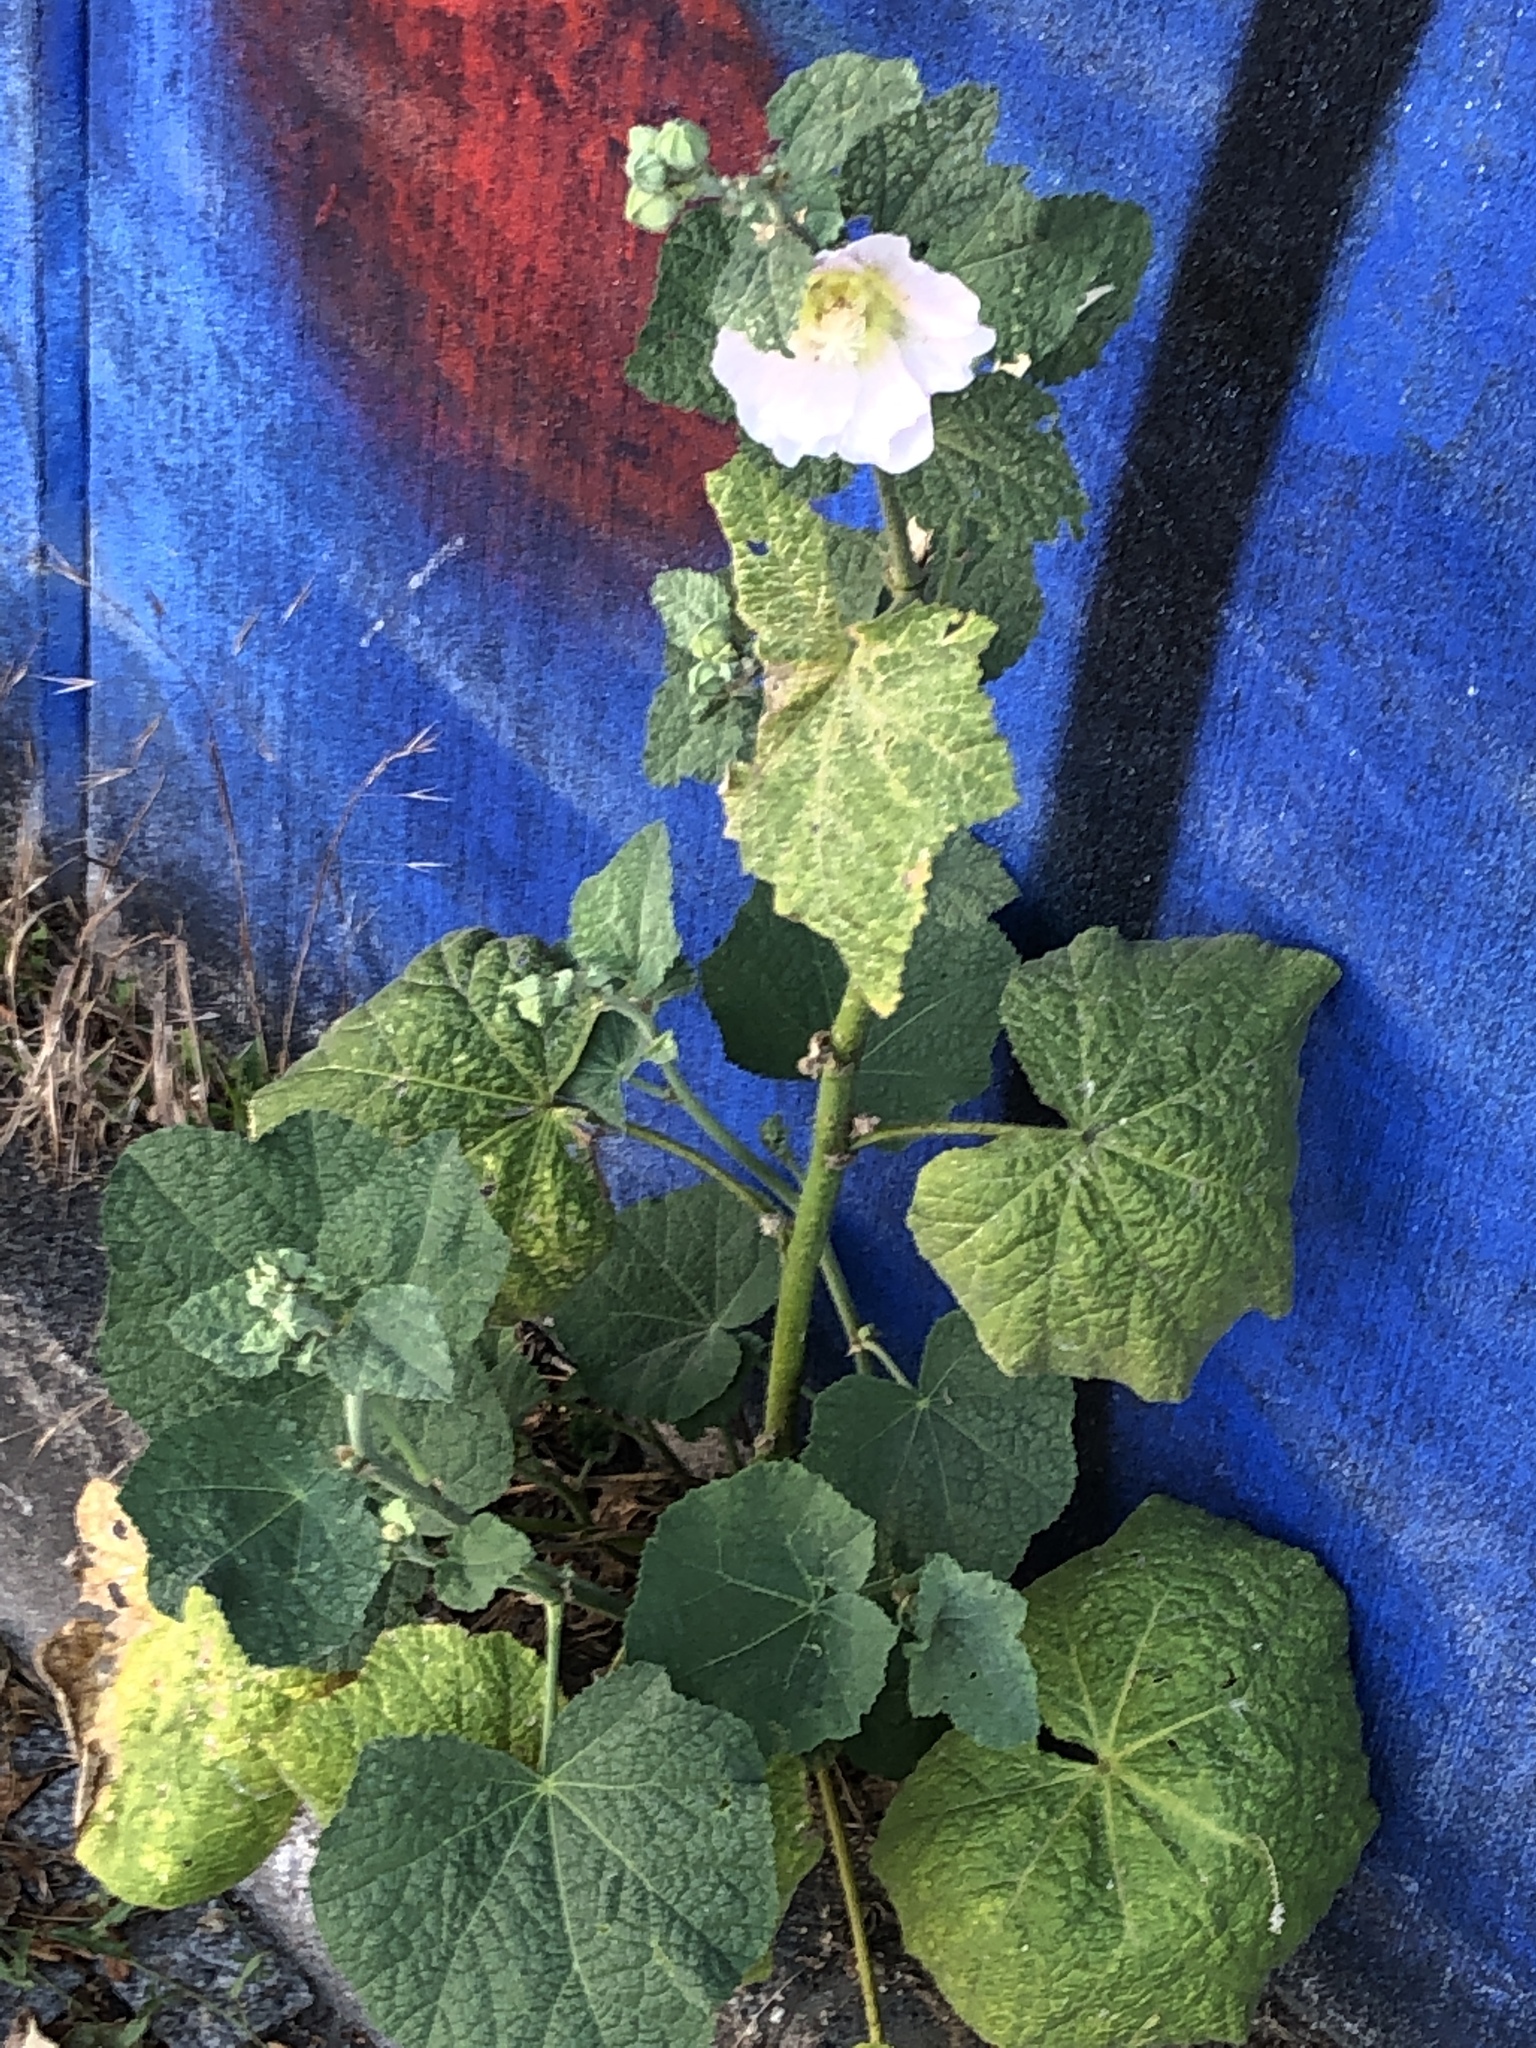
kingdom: Plantae
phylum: Tracheophyta
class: Magnoliopsida
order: Malvales
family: Malvaceae
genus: Alcea
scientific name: Alcea rosea
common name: Hollyhock
